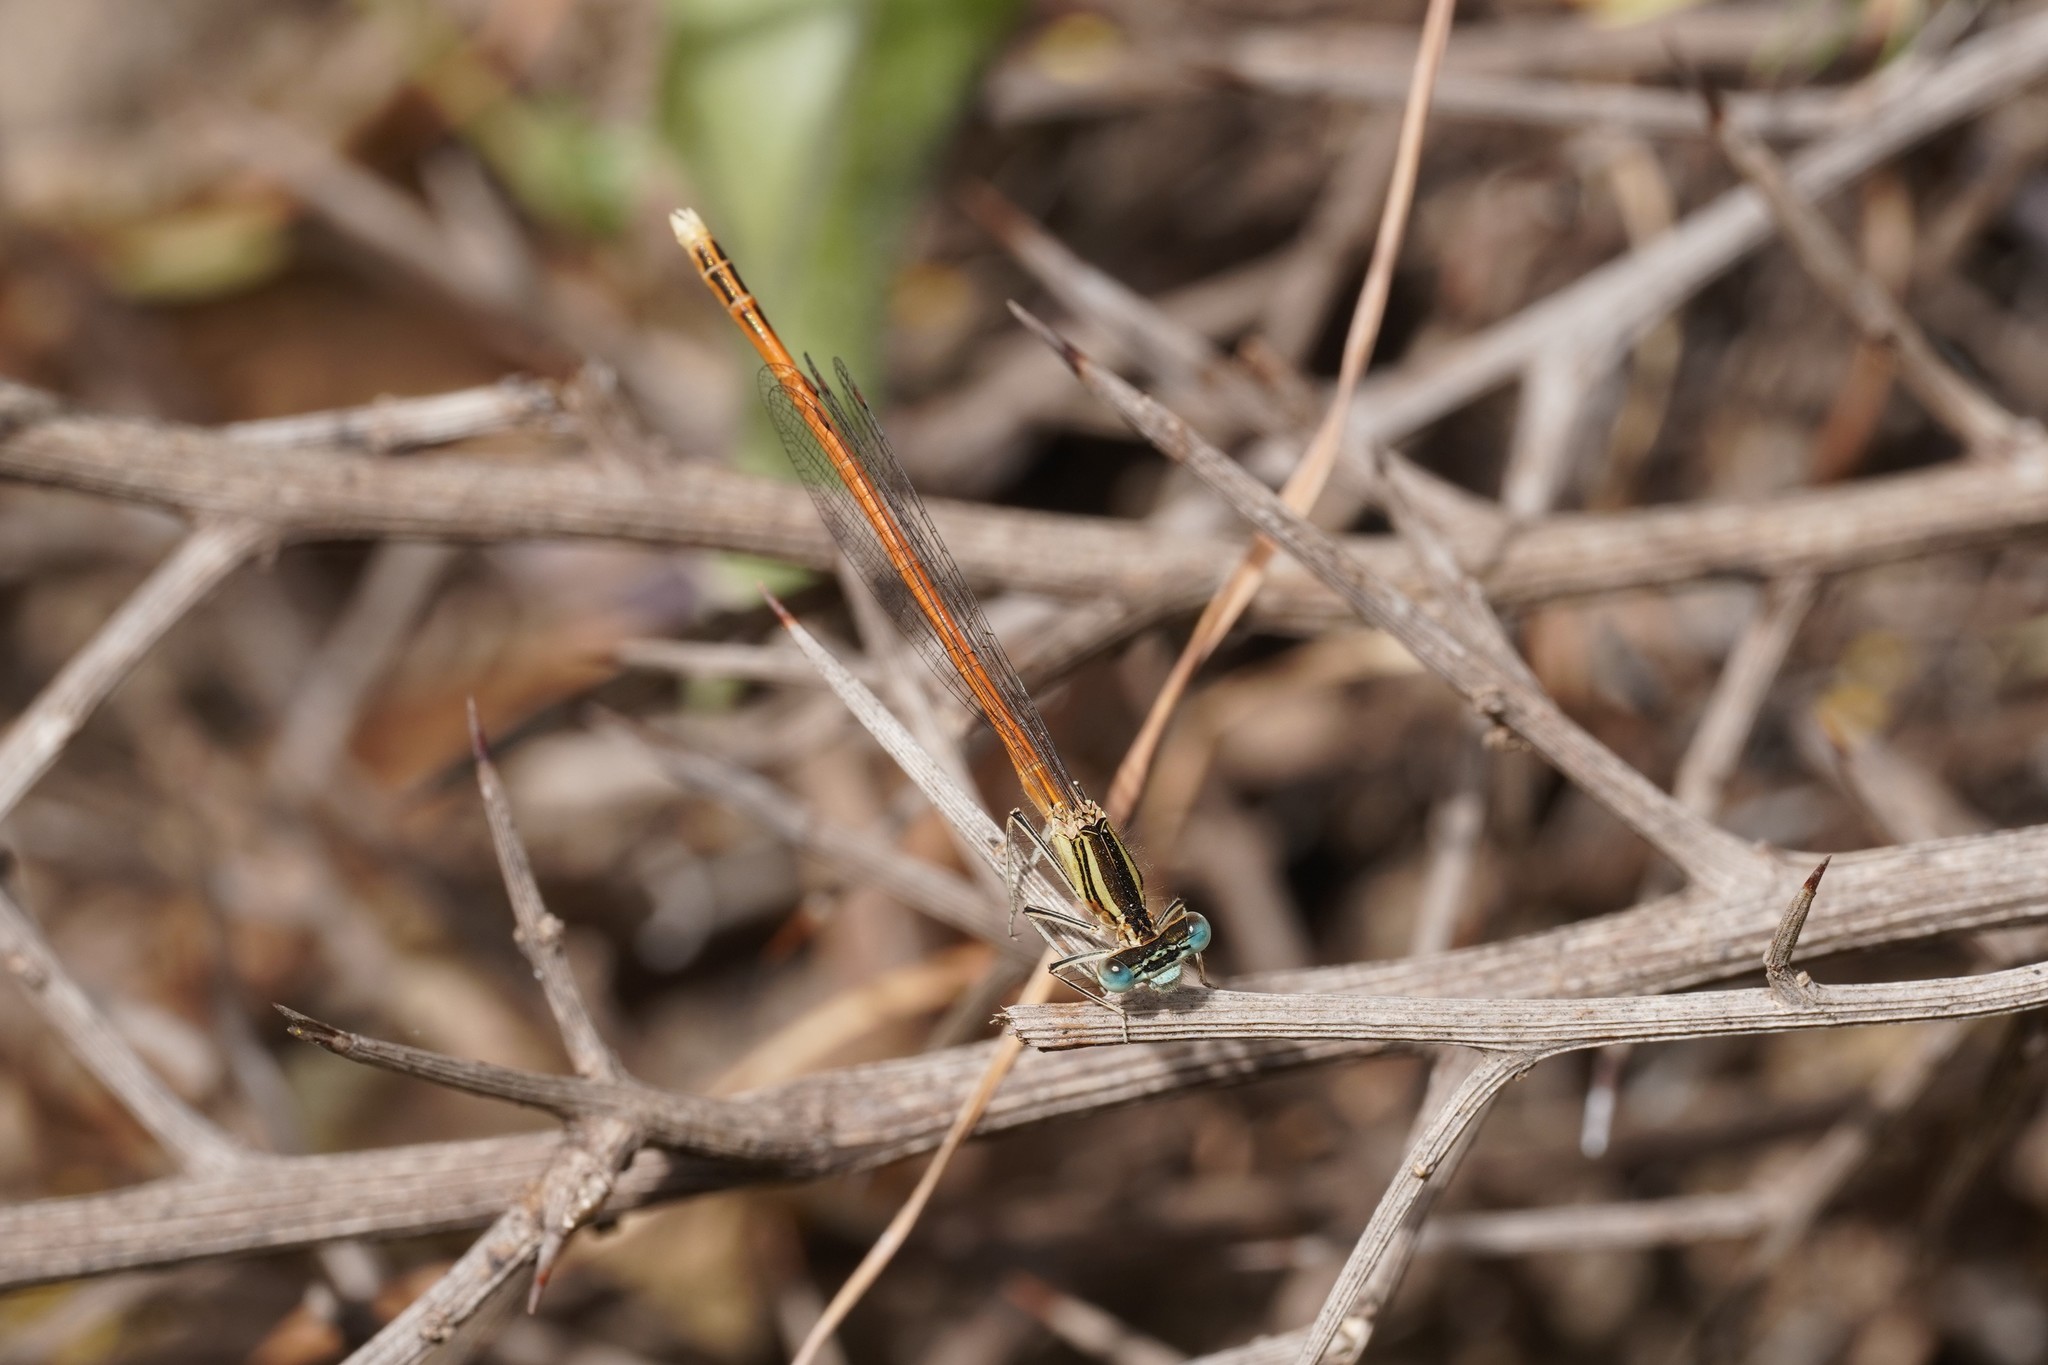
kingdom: Animalia
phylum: Arthropoda
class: Insecta
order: Odonata
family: Platycnemididae
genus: Platycnemis
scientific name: Platycnemis acutipennis
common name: Orange featherleg
